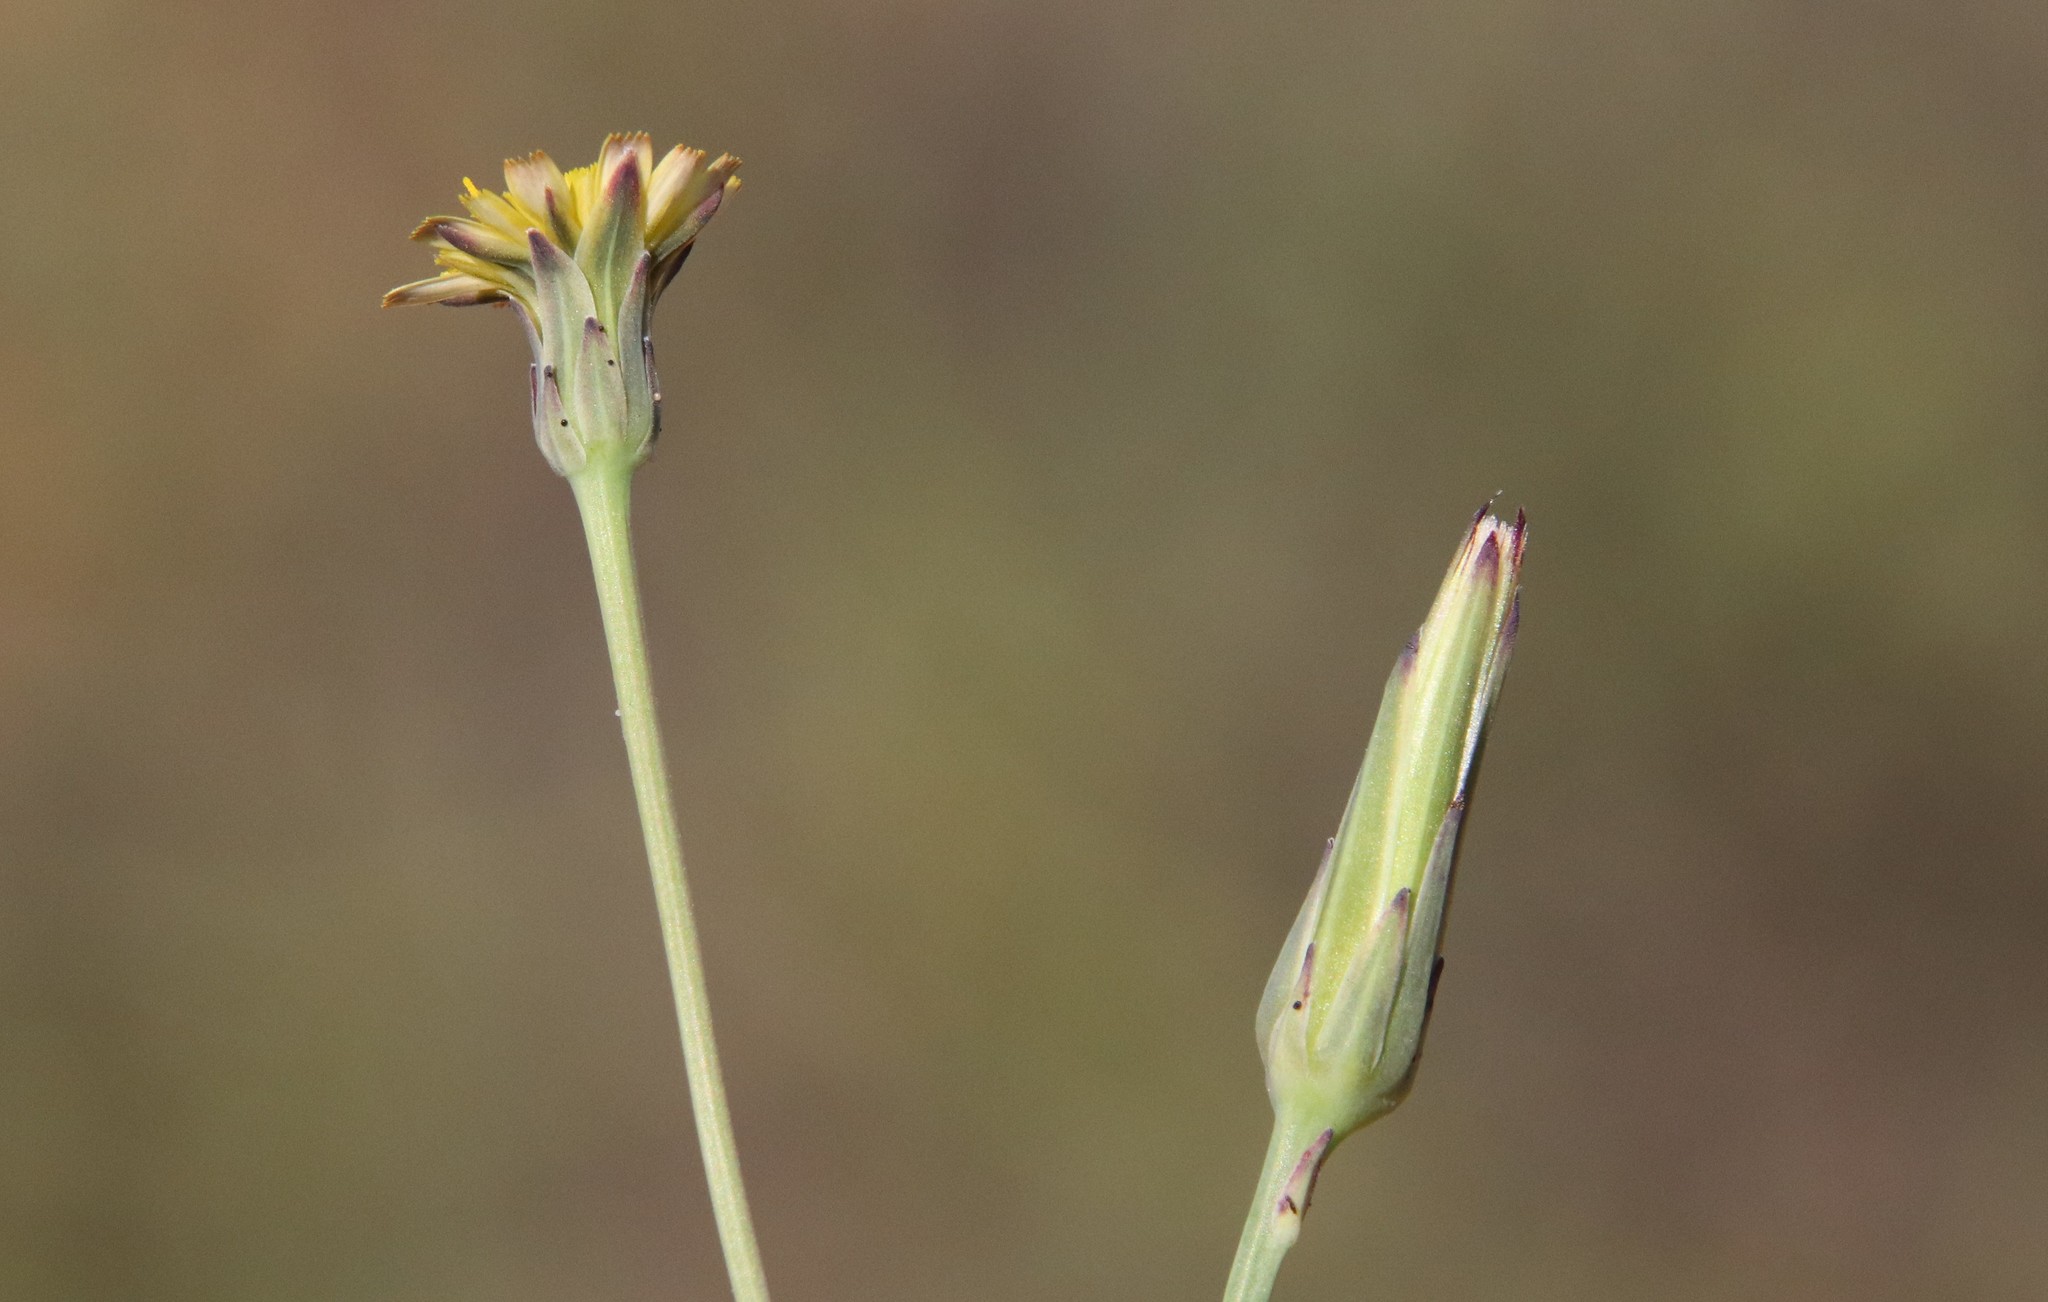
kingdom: Plantae
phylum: Tracheophyta
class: Magnoliopsida
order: Asterales
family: Asteraceae
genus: Hypochaeris
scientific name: Hypochaeris glabra
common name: Smooth catsear
